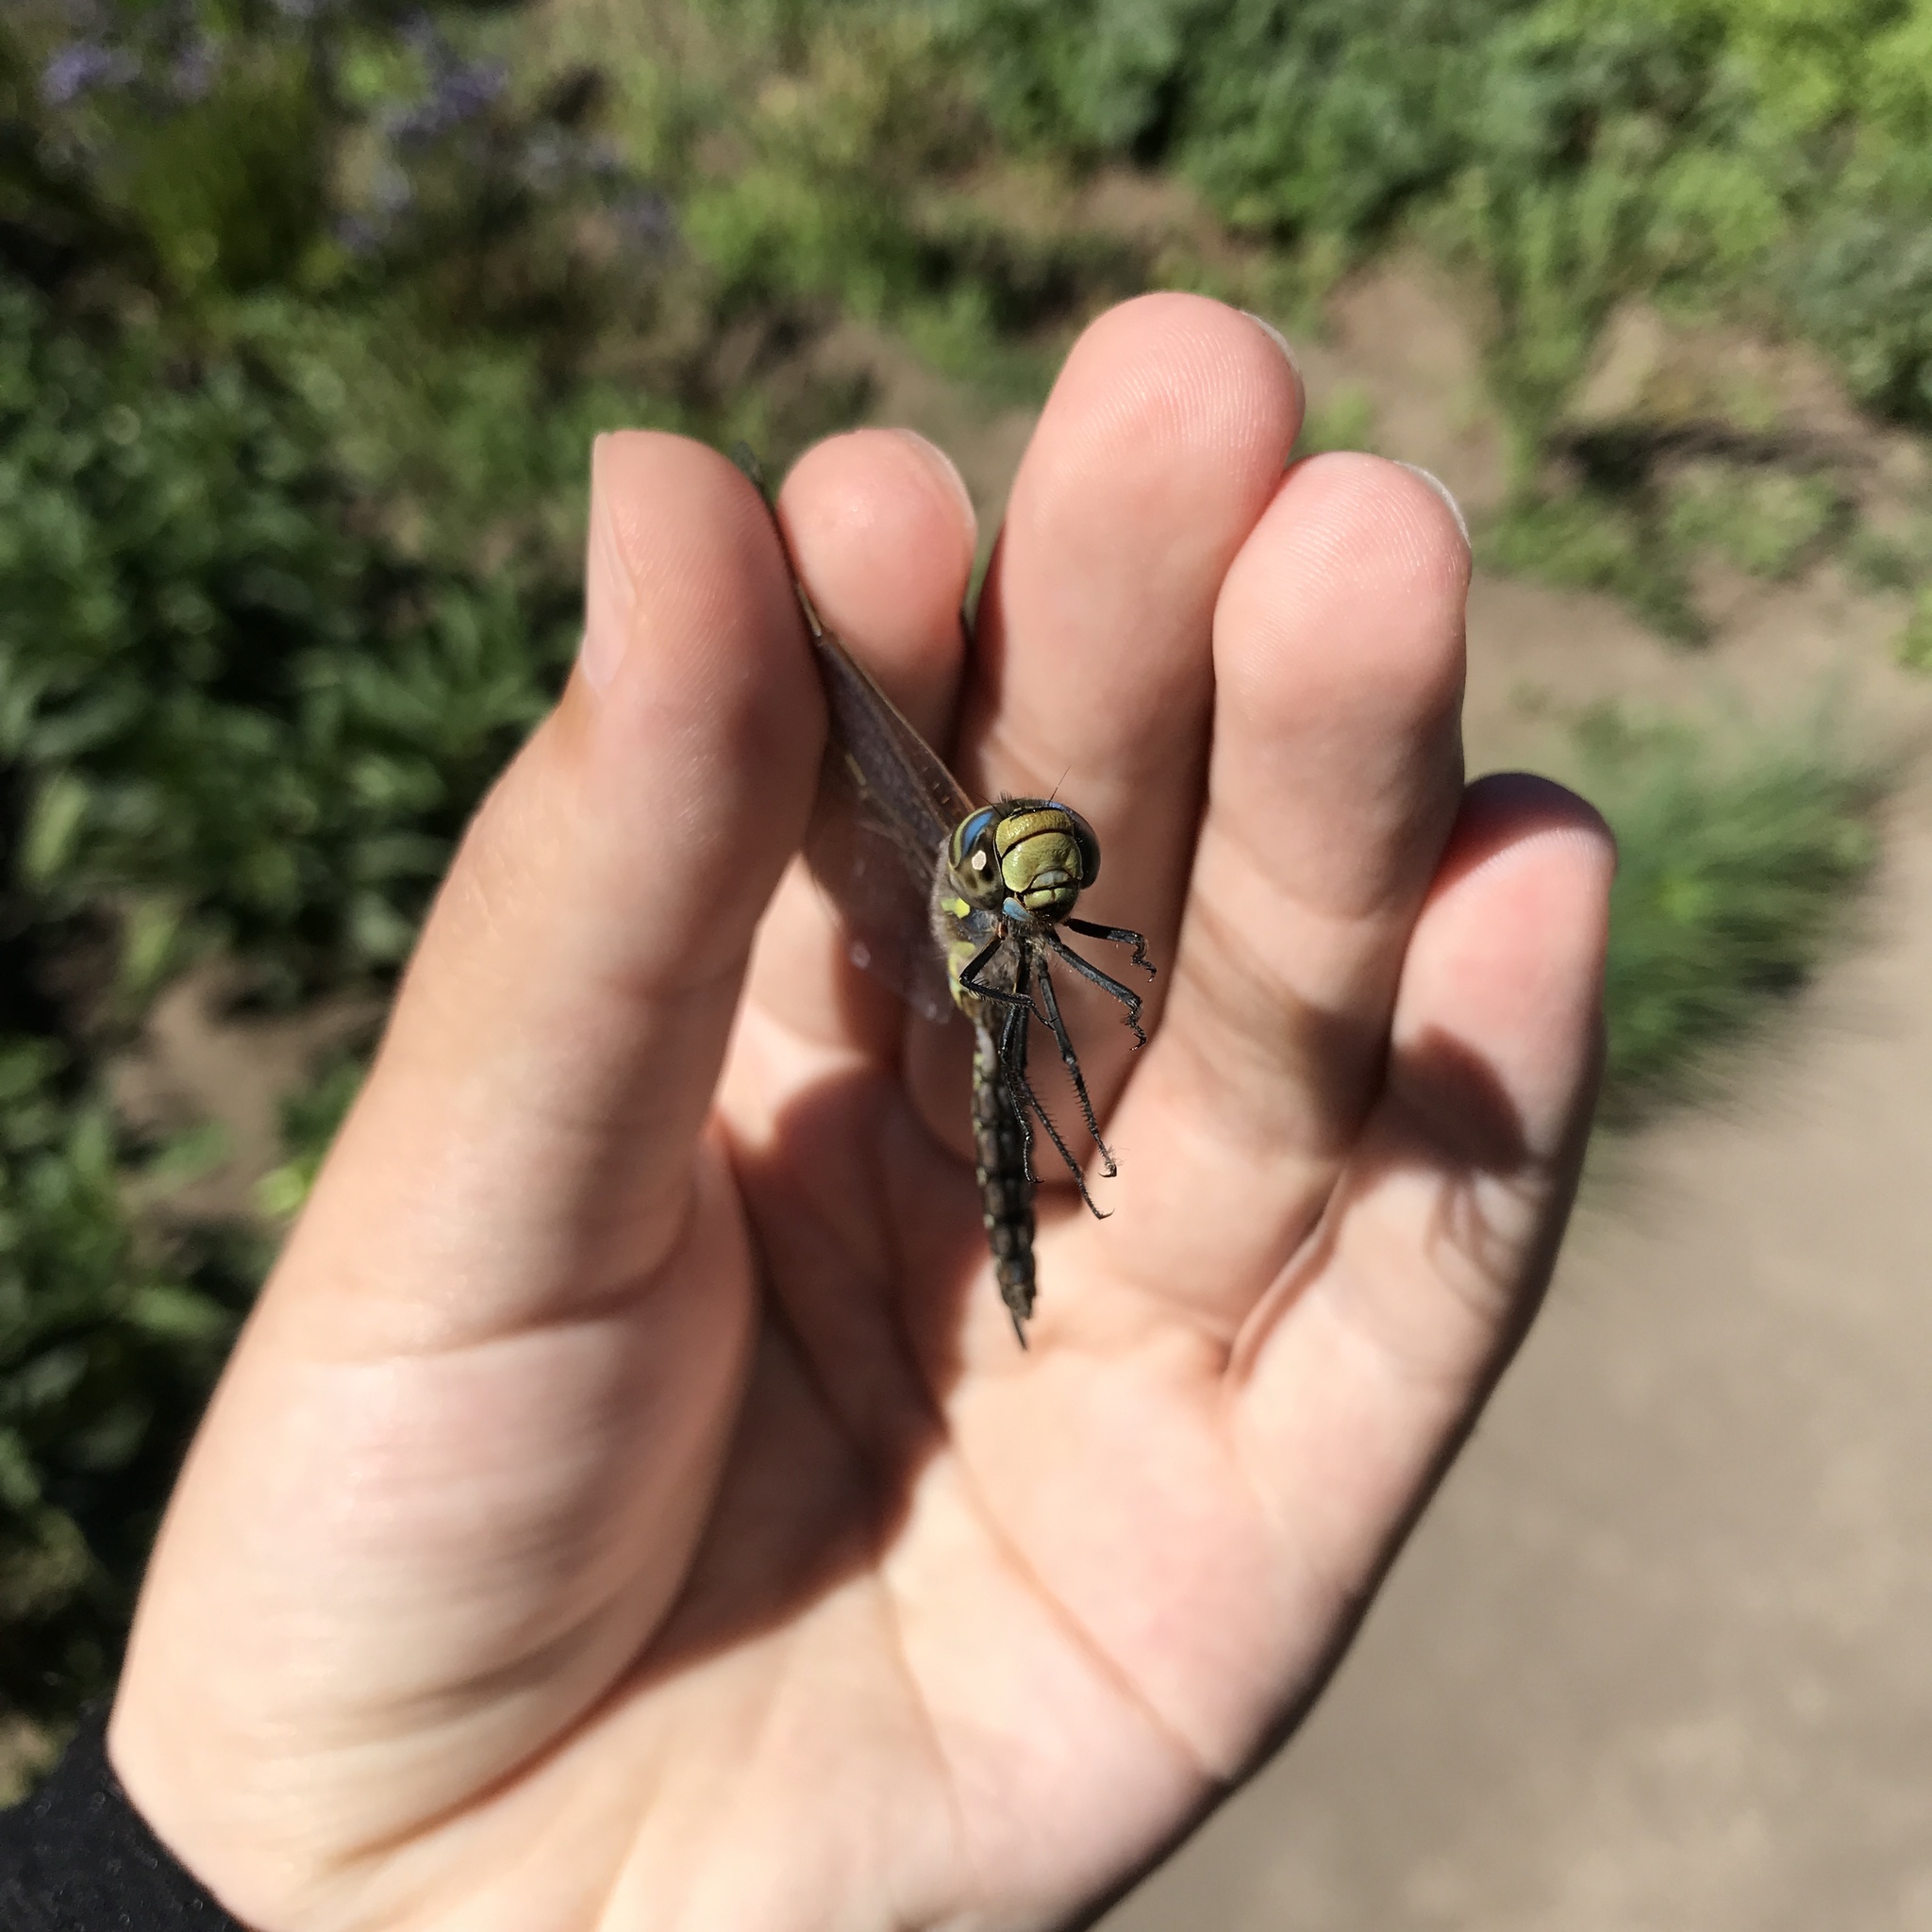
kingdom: Animalia
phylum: Arthropoda
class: Insecta
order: Odonata
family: Aeshnidae
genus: Rhionaeschna
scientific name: Rhionaeschna diffinis
